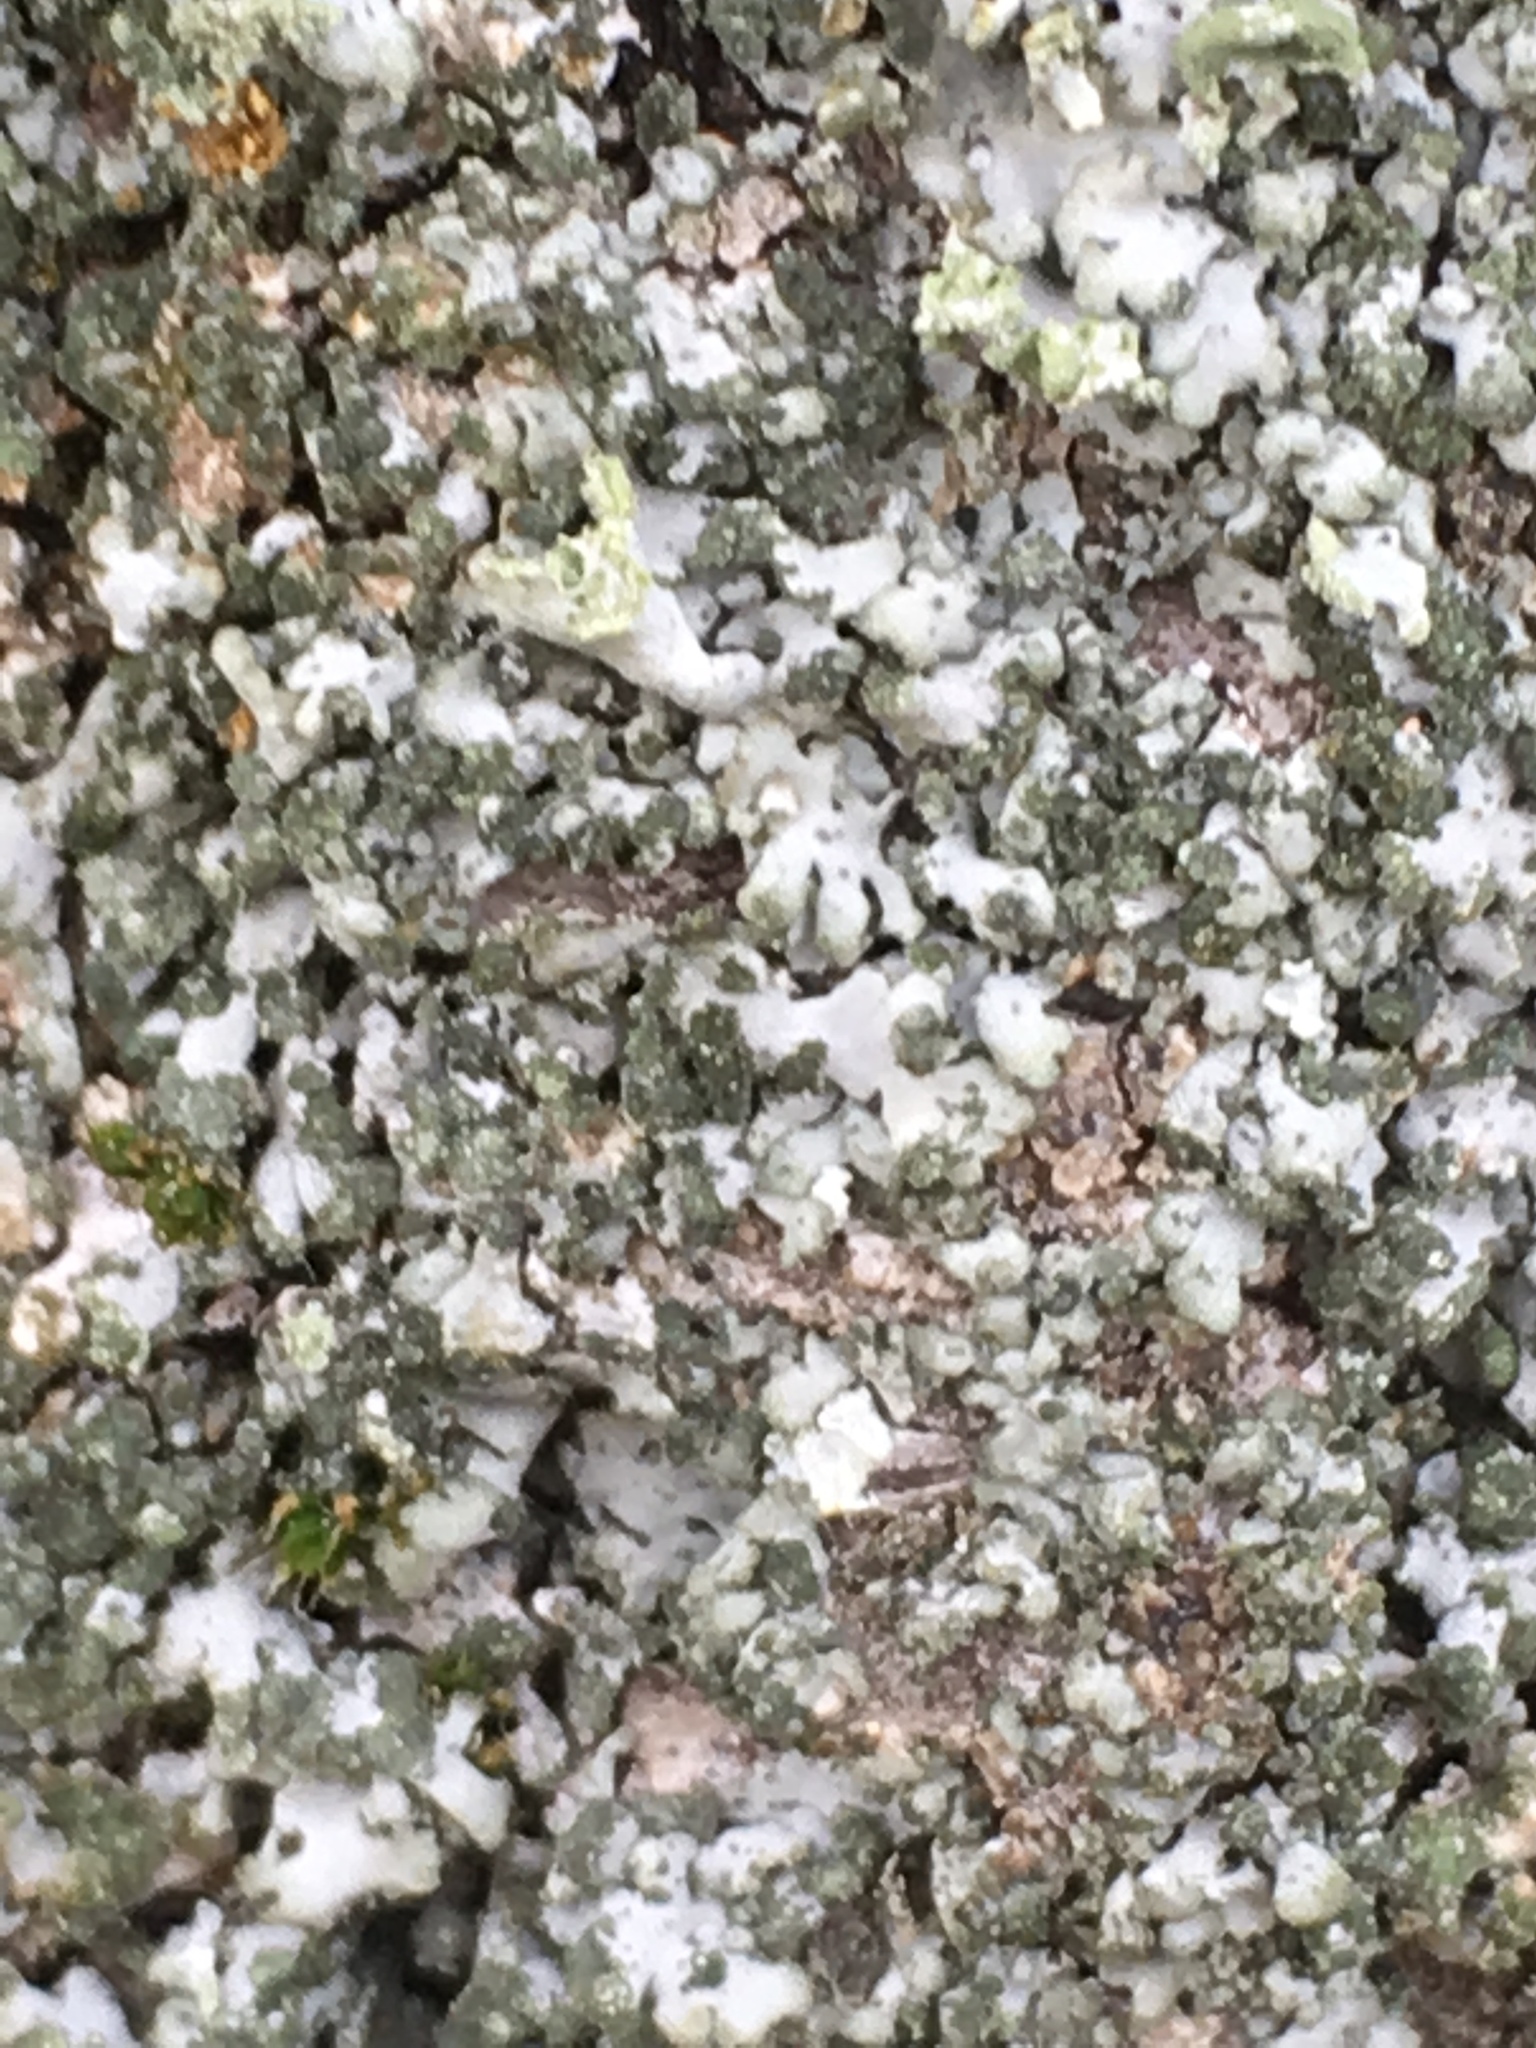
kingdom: Fungi
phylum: Ascomycota
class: Lecanoromycetes
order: Caliciales
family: Physciaceae
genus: Physcia
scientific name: Physcia adscendens
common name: Hooded rosette lichen
